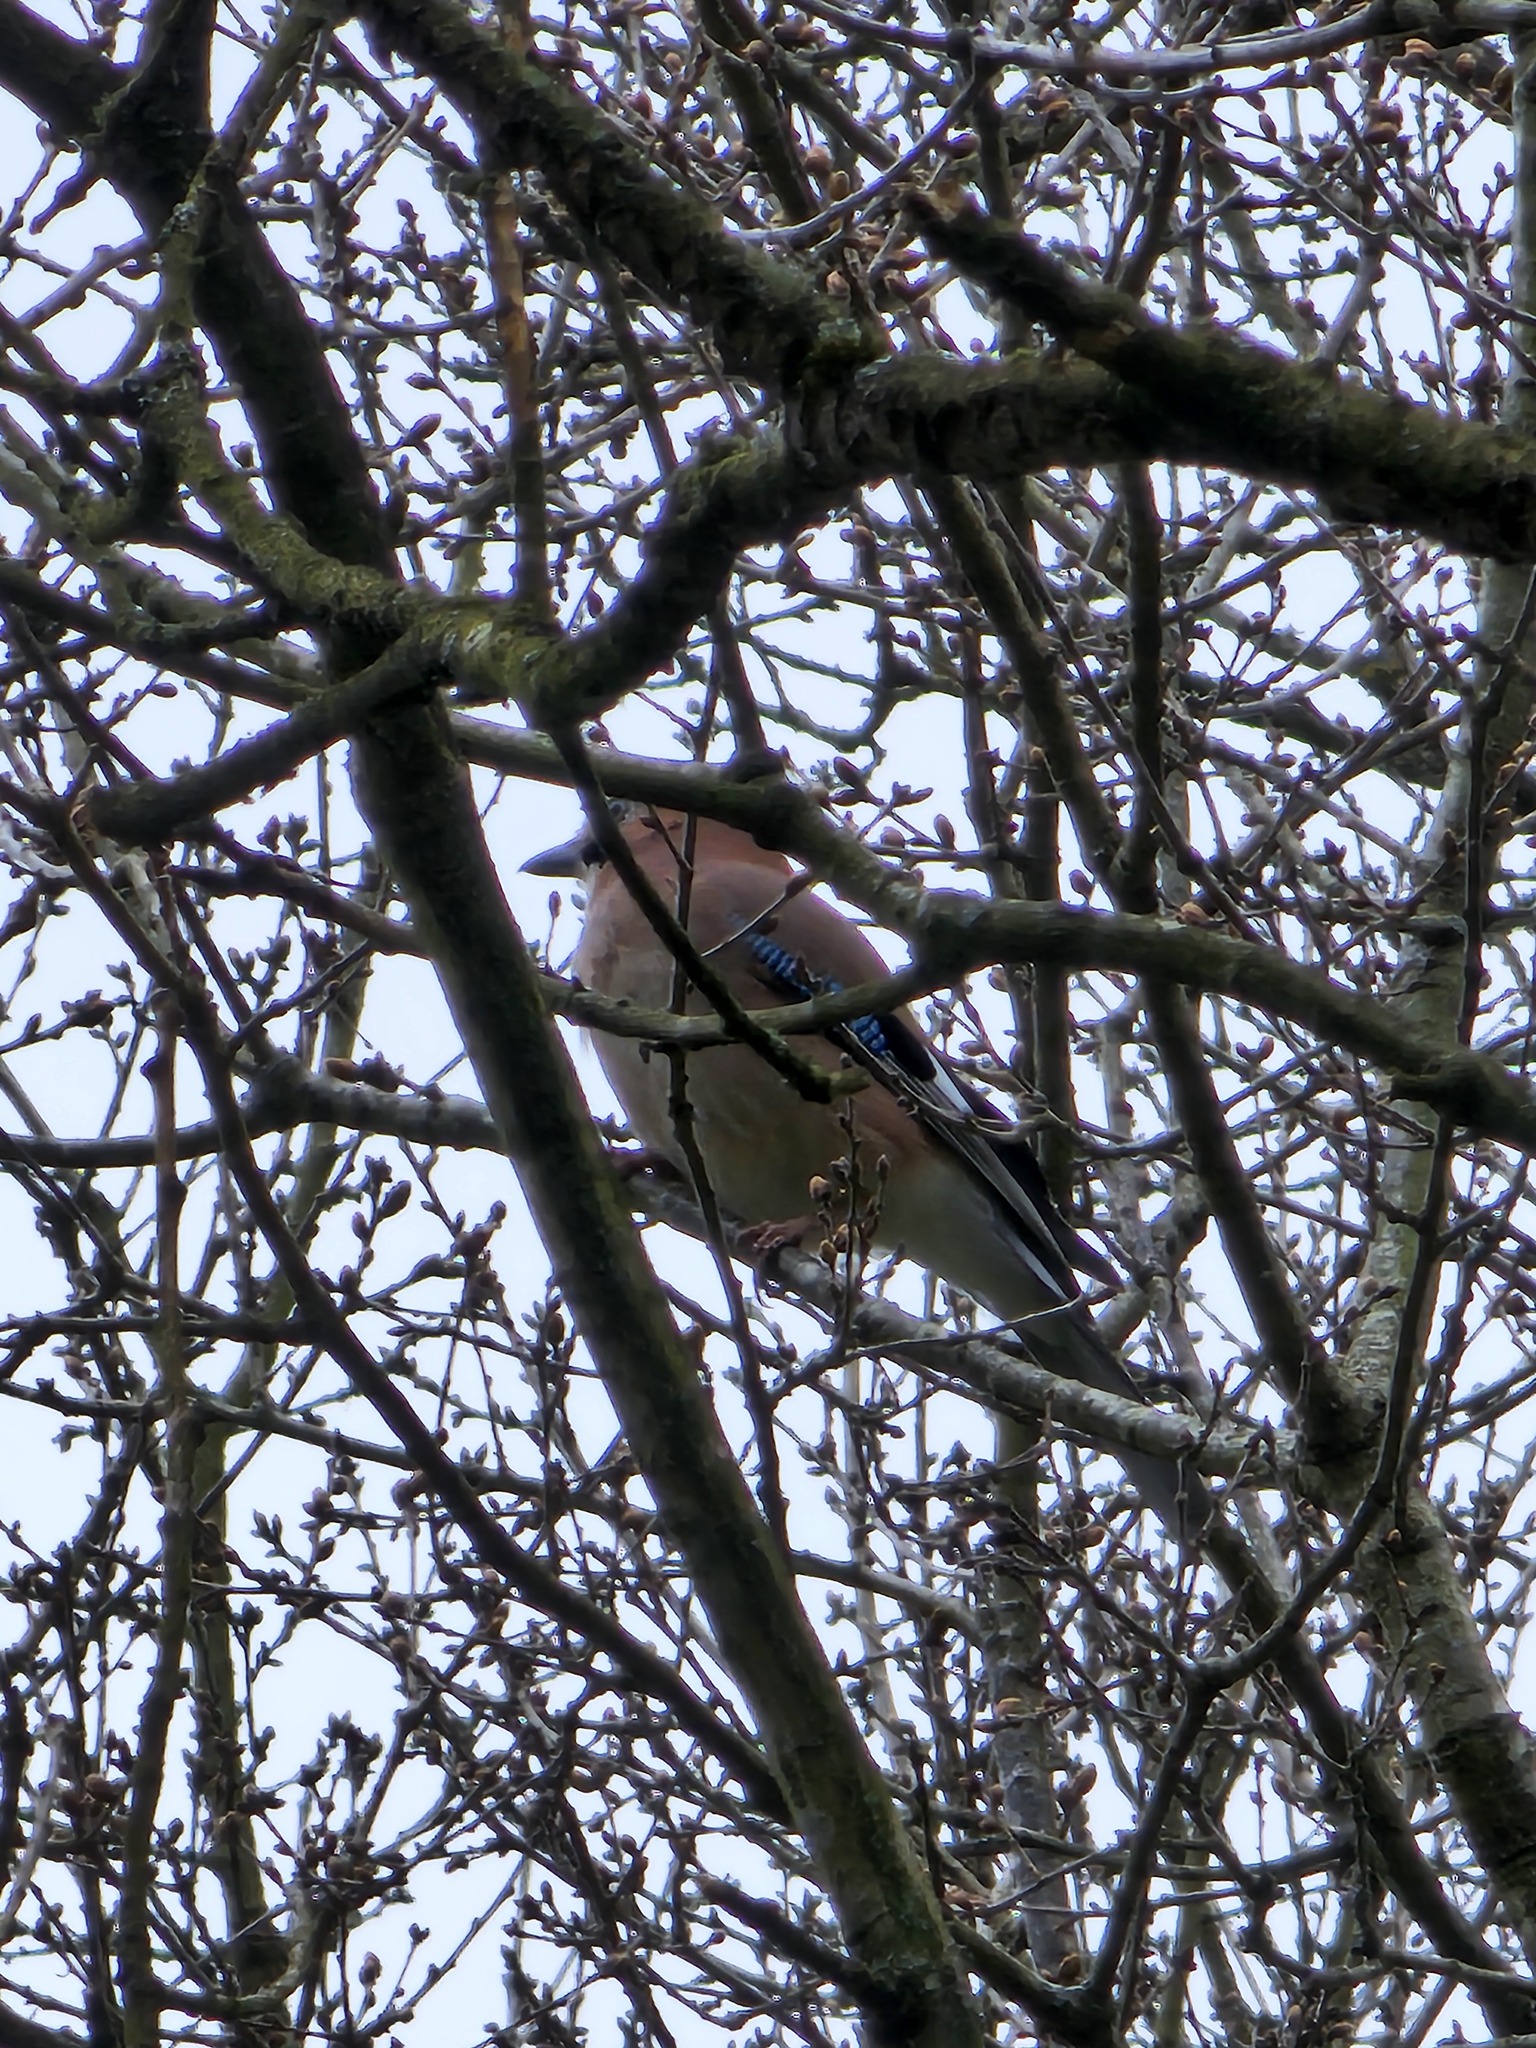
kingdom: Animalia
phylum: Chordata
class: Aves
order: Passeriformes
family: Corvidae
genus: Garrulus
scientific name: Garrulus glandarius
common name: Eurasian jay
